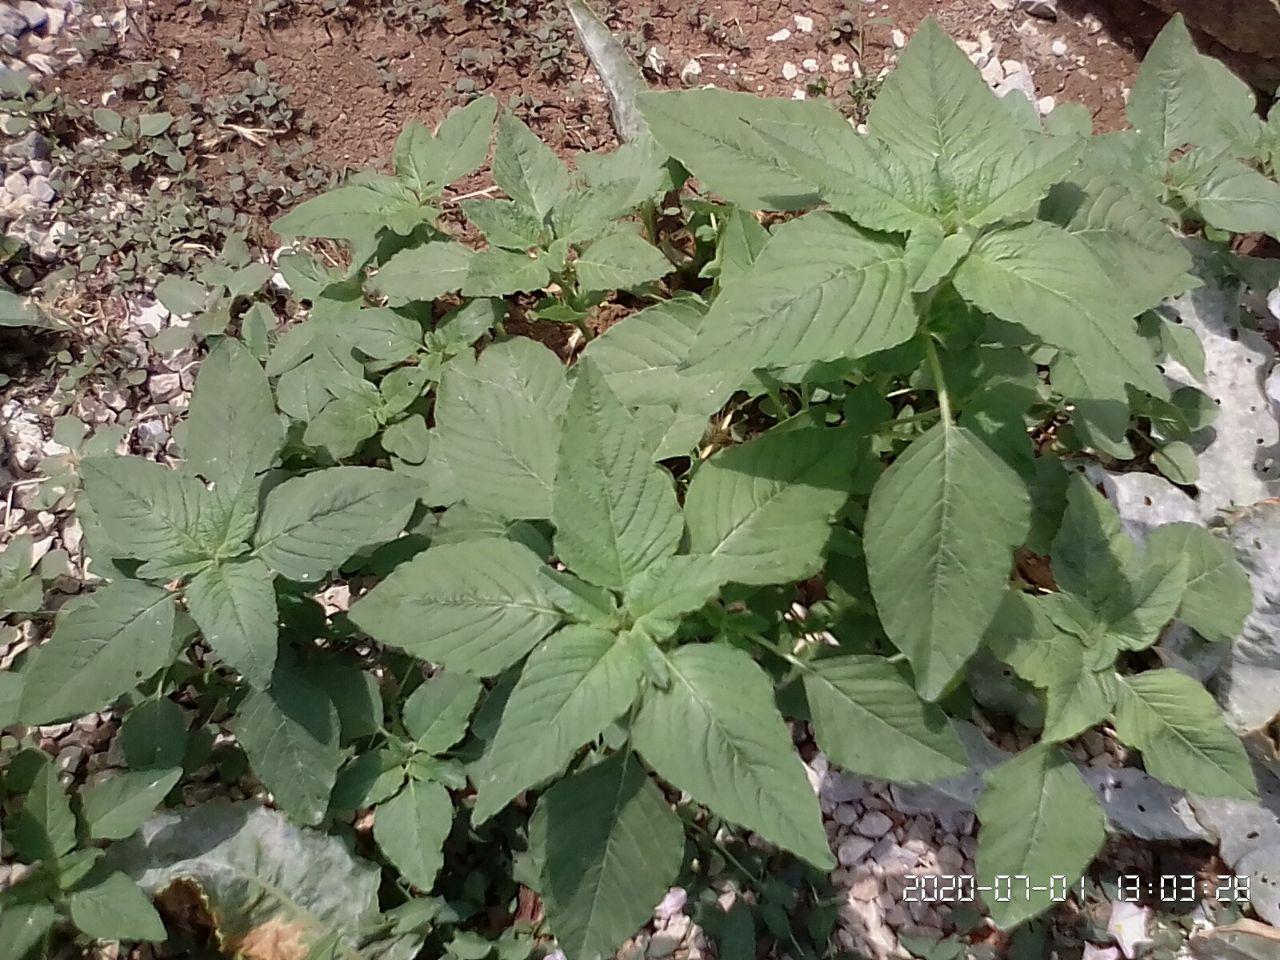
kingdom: Plantae
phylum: Tracheophyta
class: Magnoliopsida
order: Caryophyllales
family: Amaranthaceae
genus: Amaranthus
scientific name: Amaranthus retroflexus
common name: Redroot amaranth
